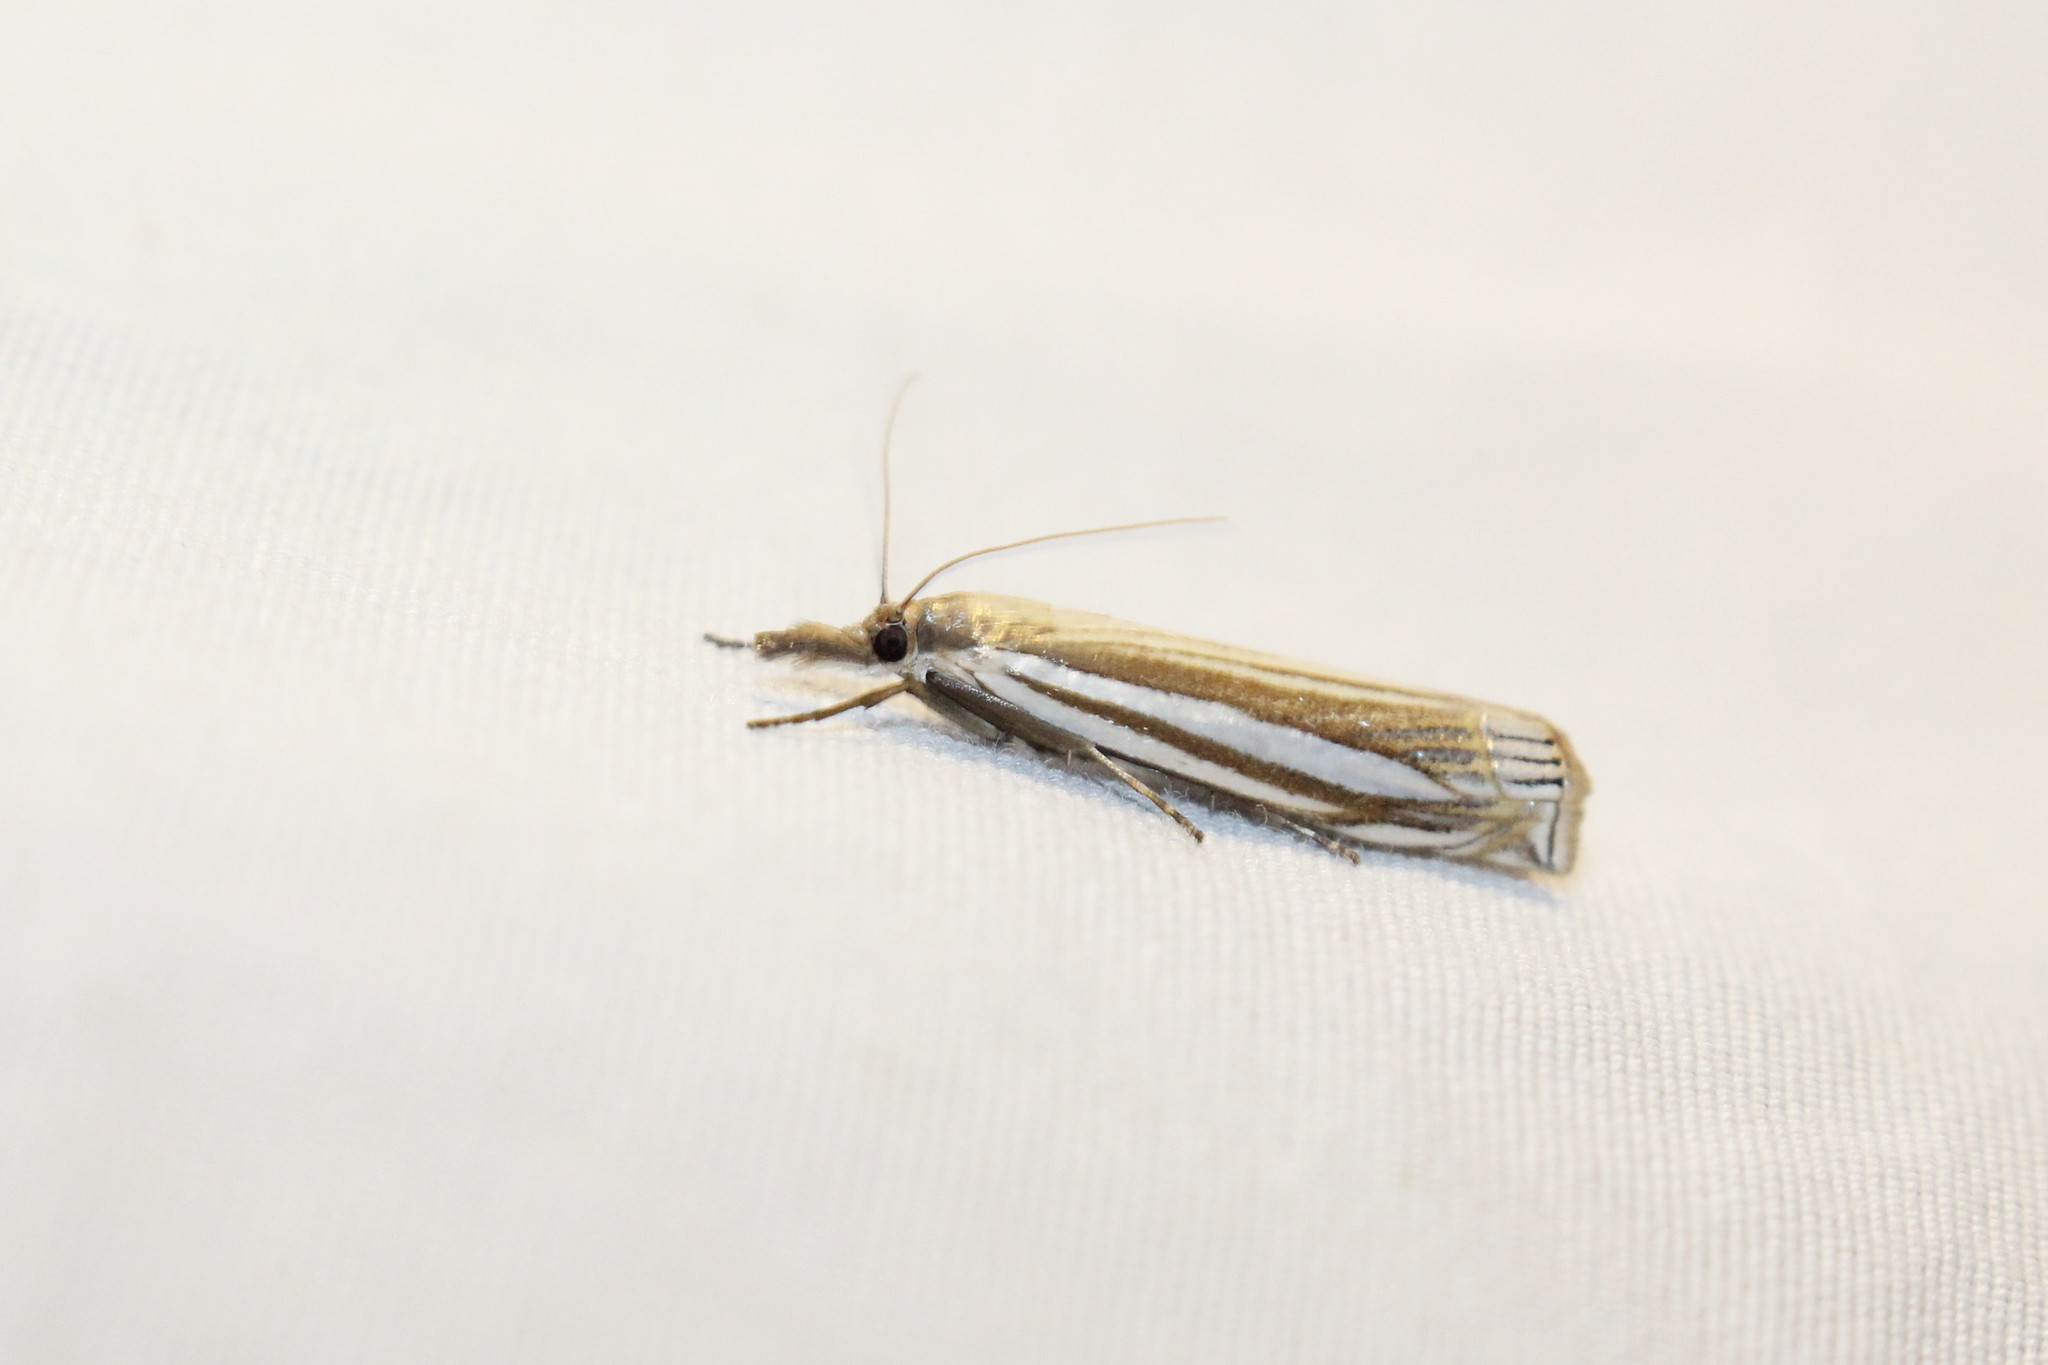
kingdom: Animalia
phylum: Arthropoda
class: Insecta
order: Lepidoptera
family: Crambidae
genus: Crambus
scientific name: Crambus laqueatellus
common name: Eastern grass-veneer
